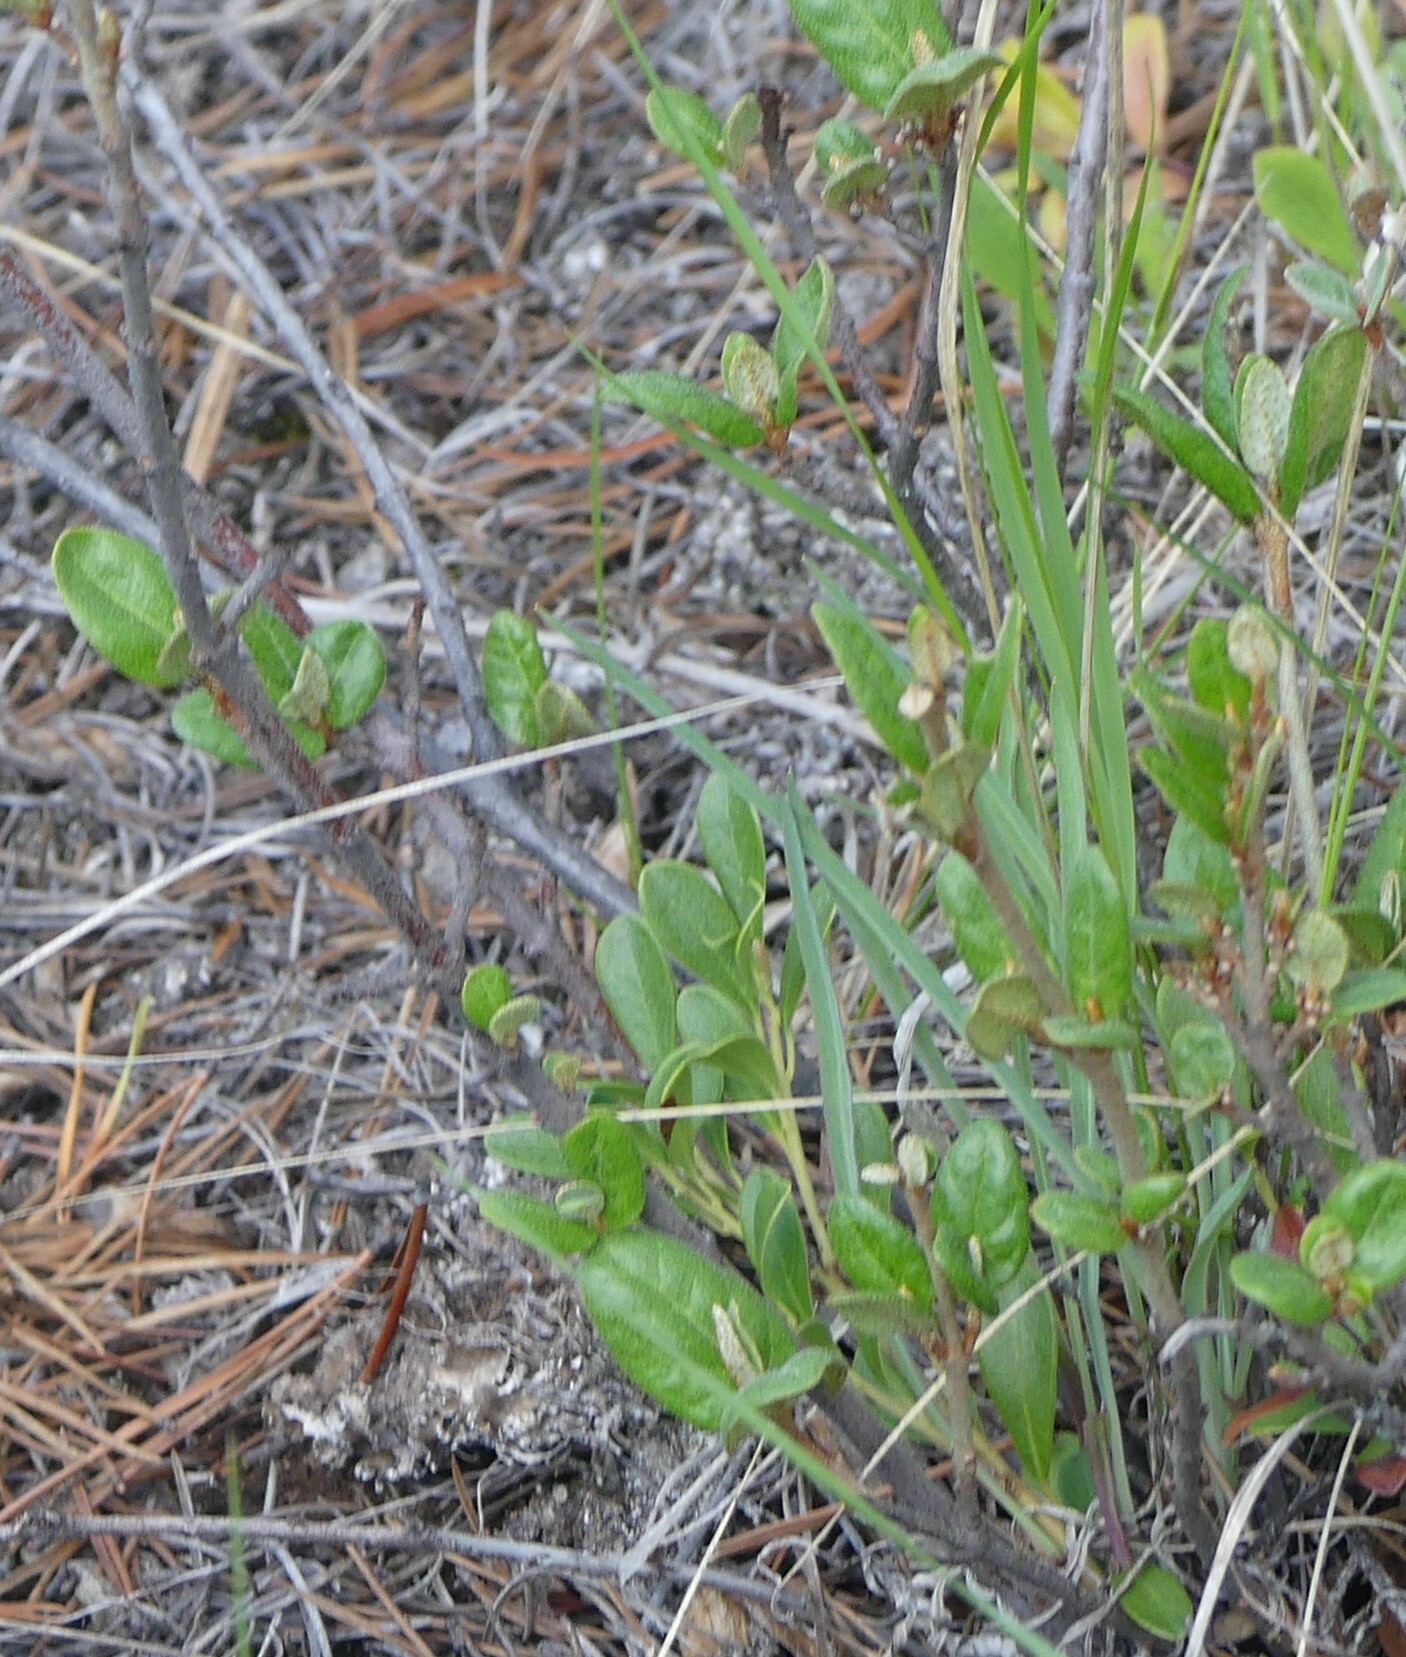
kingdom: Plantae
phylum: Tracheophyta
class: Magnoliopsida
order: Rosales
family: Elaeagnaceae
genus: Shepherdia
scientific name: Shepherdia canadensis
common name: Soapberry
